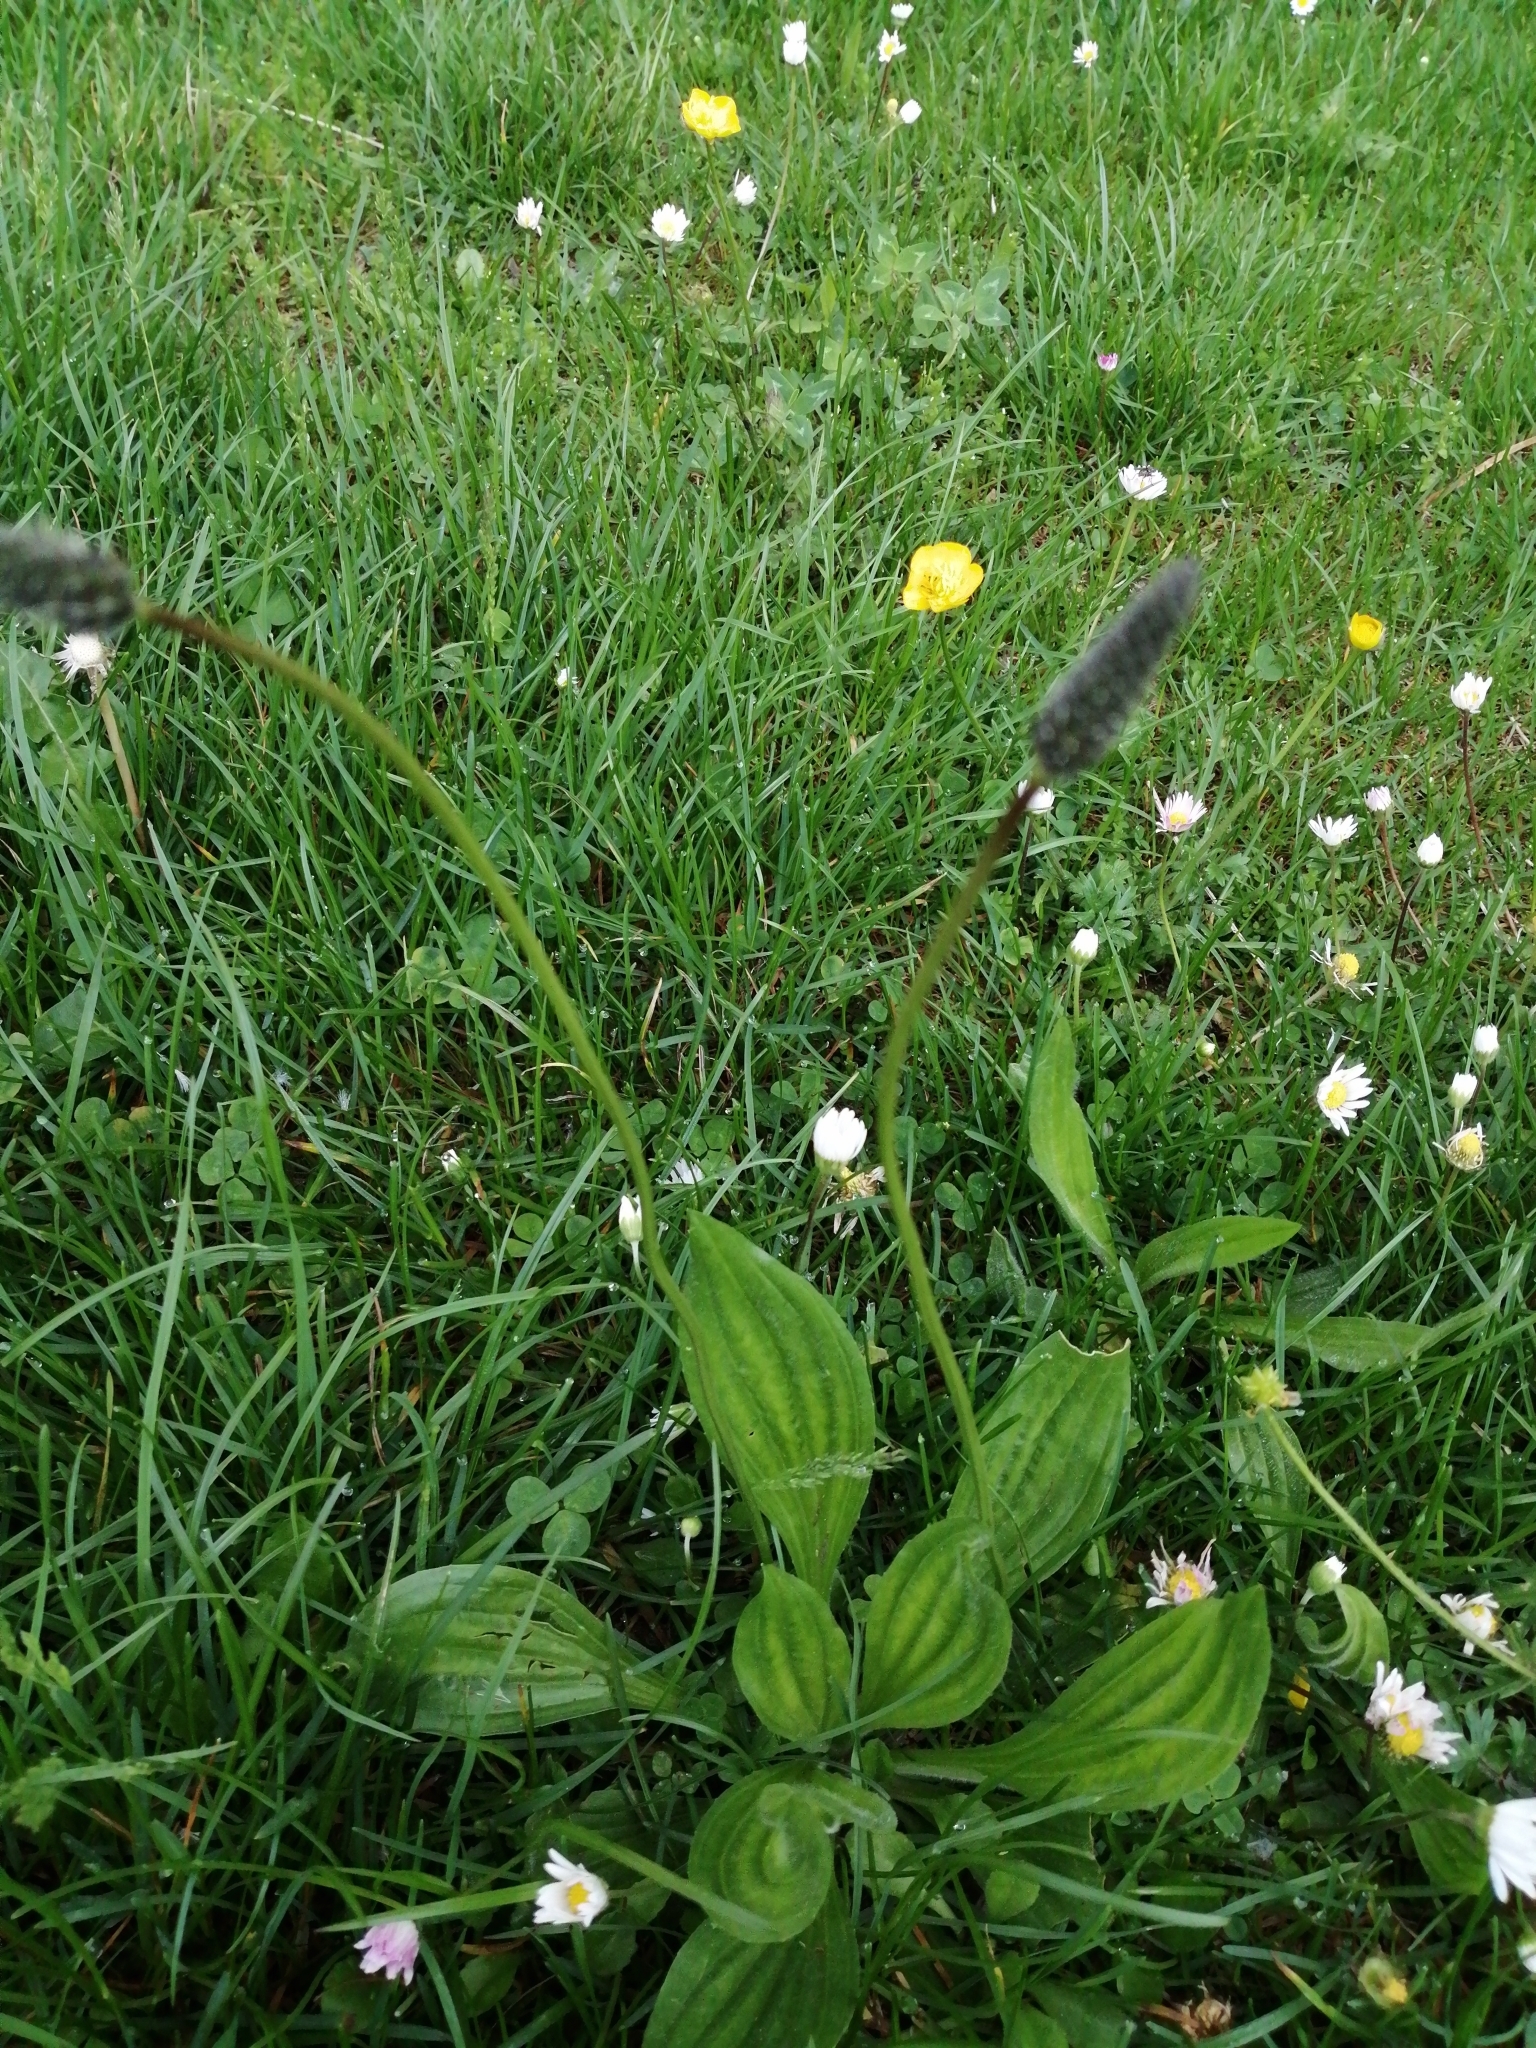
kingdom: Plantae
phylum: Tracheophyta
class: Magnoliopsida
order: Lamiales
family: Plantaginaceae
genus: Plantago
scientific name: Plantago lanceolata
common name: Ribwort plantain
